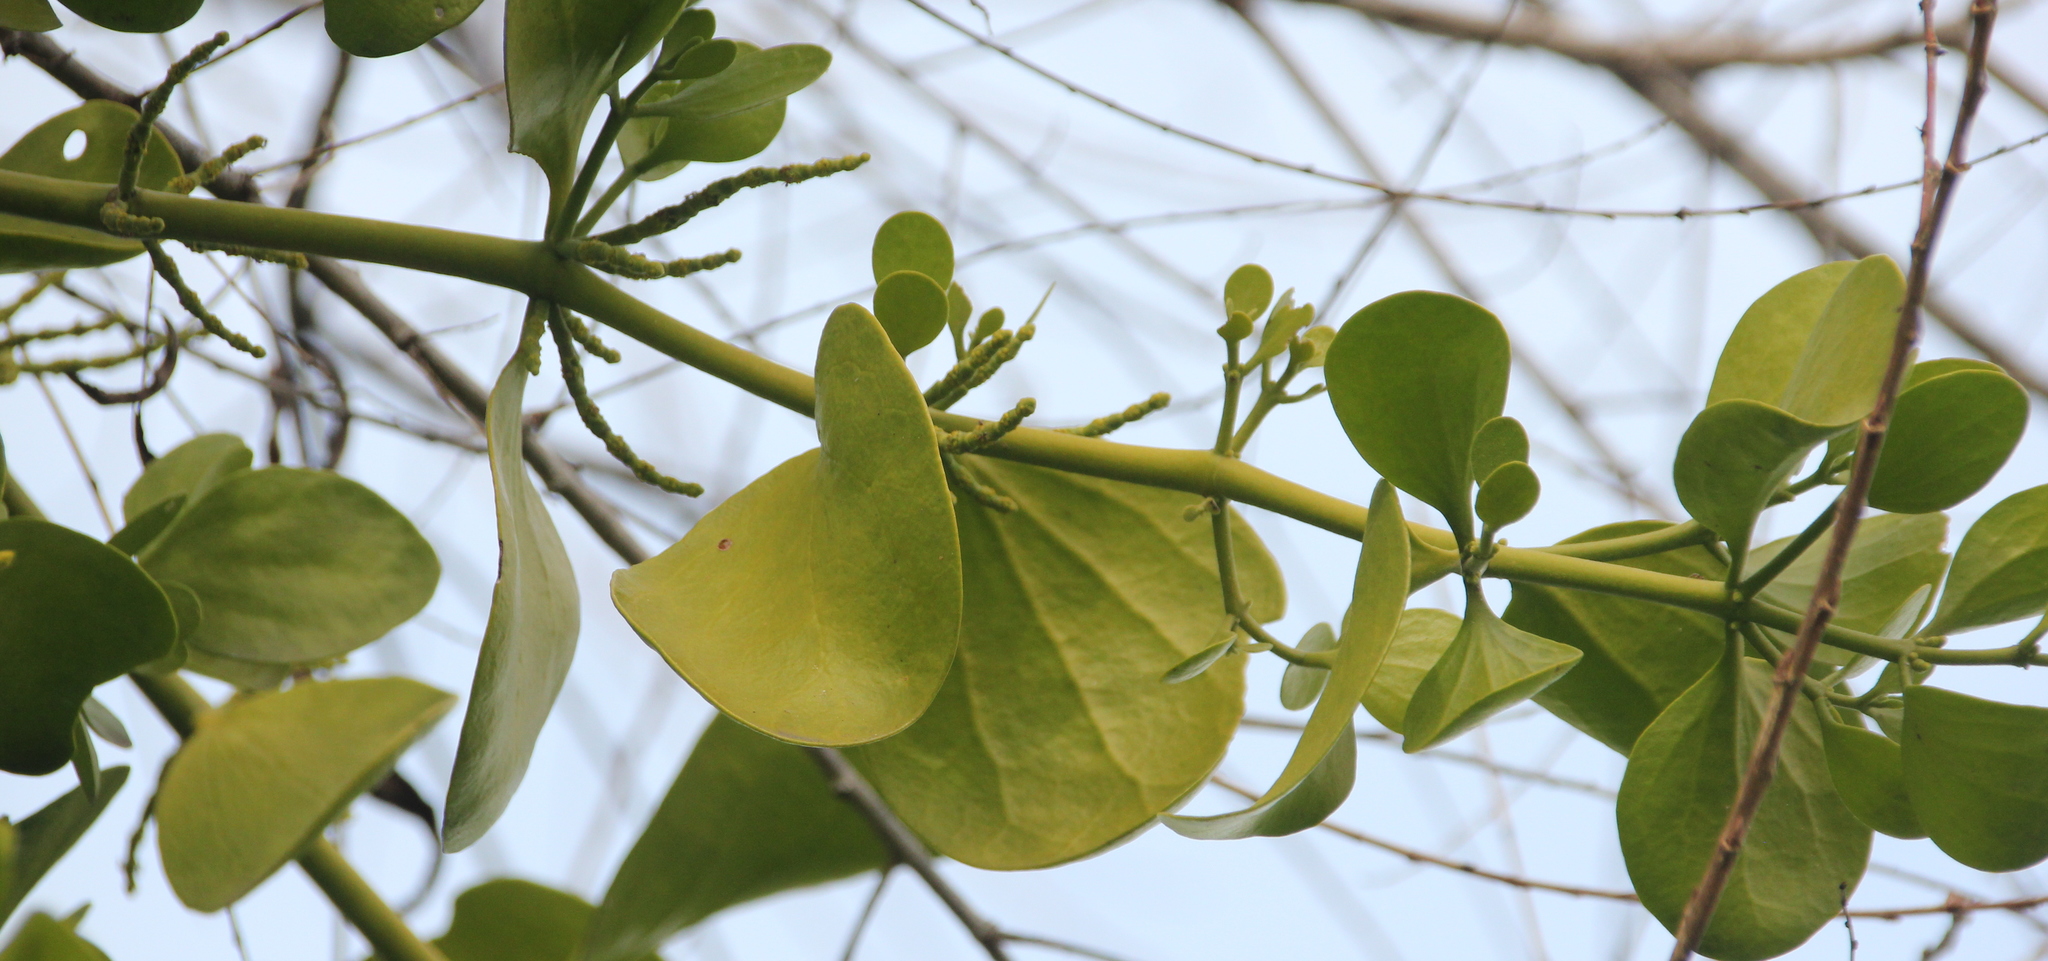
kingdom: Plantae
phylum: Tracheophyta
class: Magnoliopsida
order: Santalales
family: Viscaceae
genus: Phoradendron
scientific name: Phoradendron
